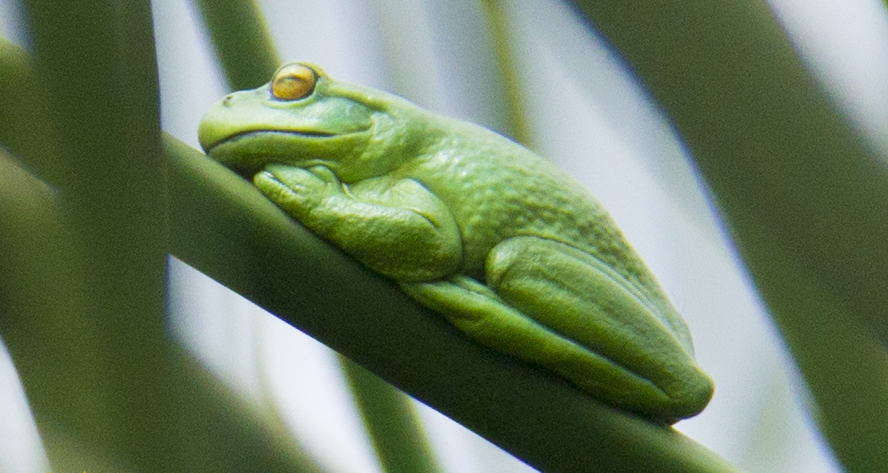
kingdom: Animalia
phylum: Chordata
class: Amphibia
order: Anura
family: Hylidae
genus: Dendropsophus
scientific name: Dendropsophus molitor
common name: Green dotted treefrog
